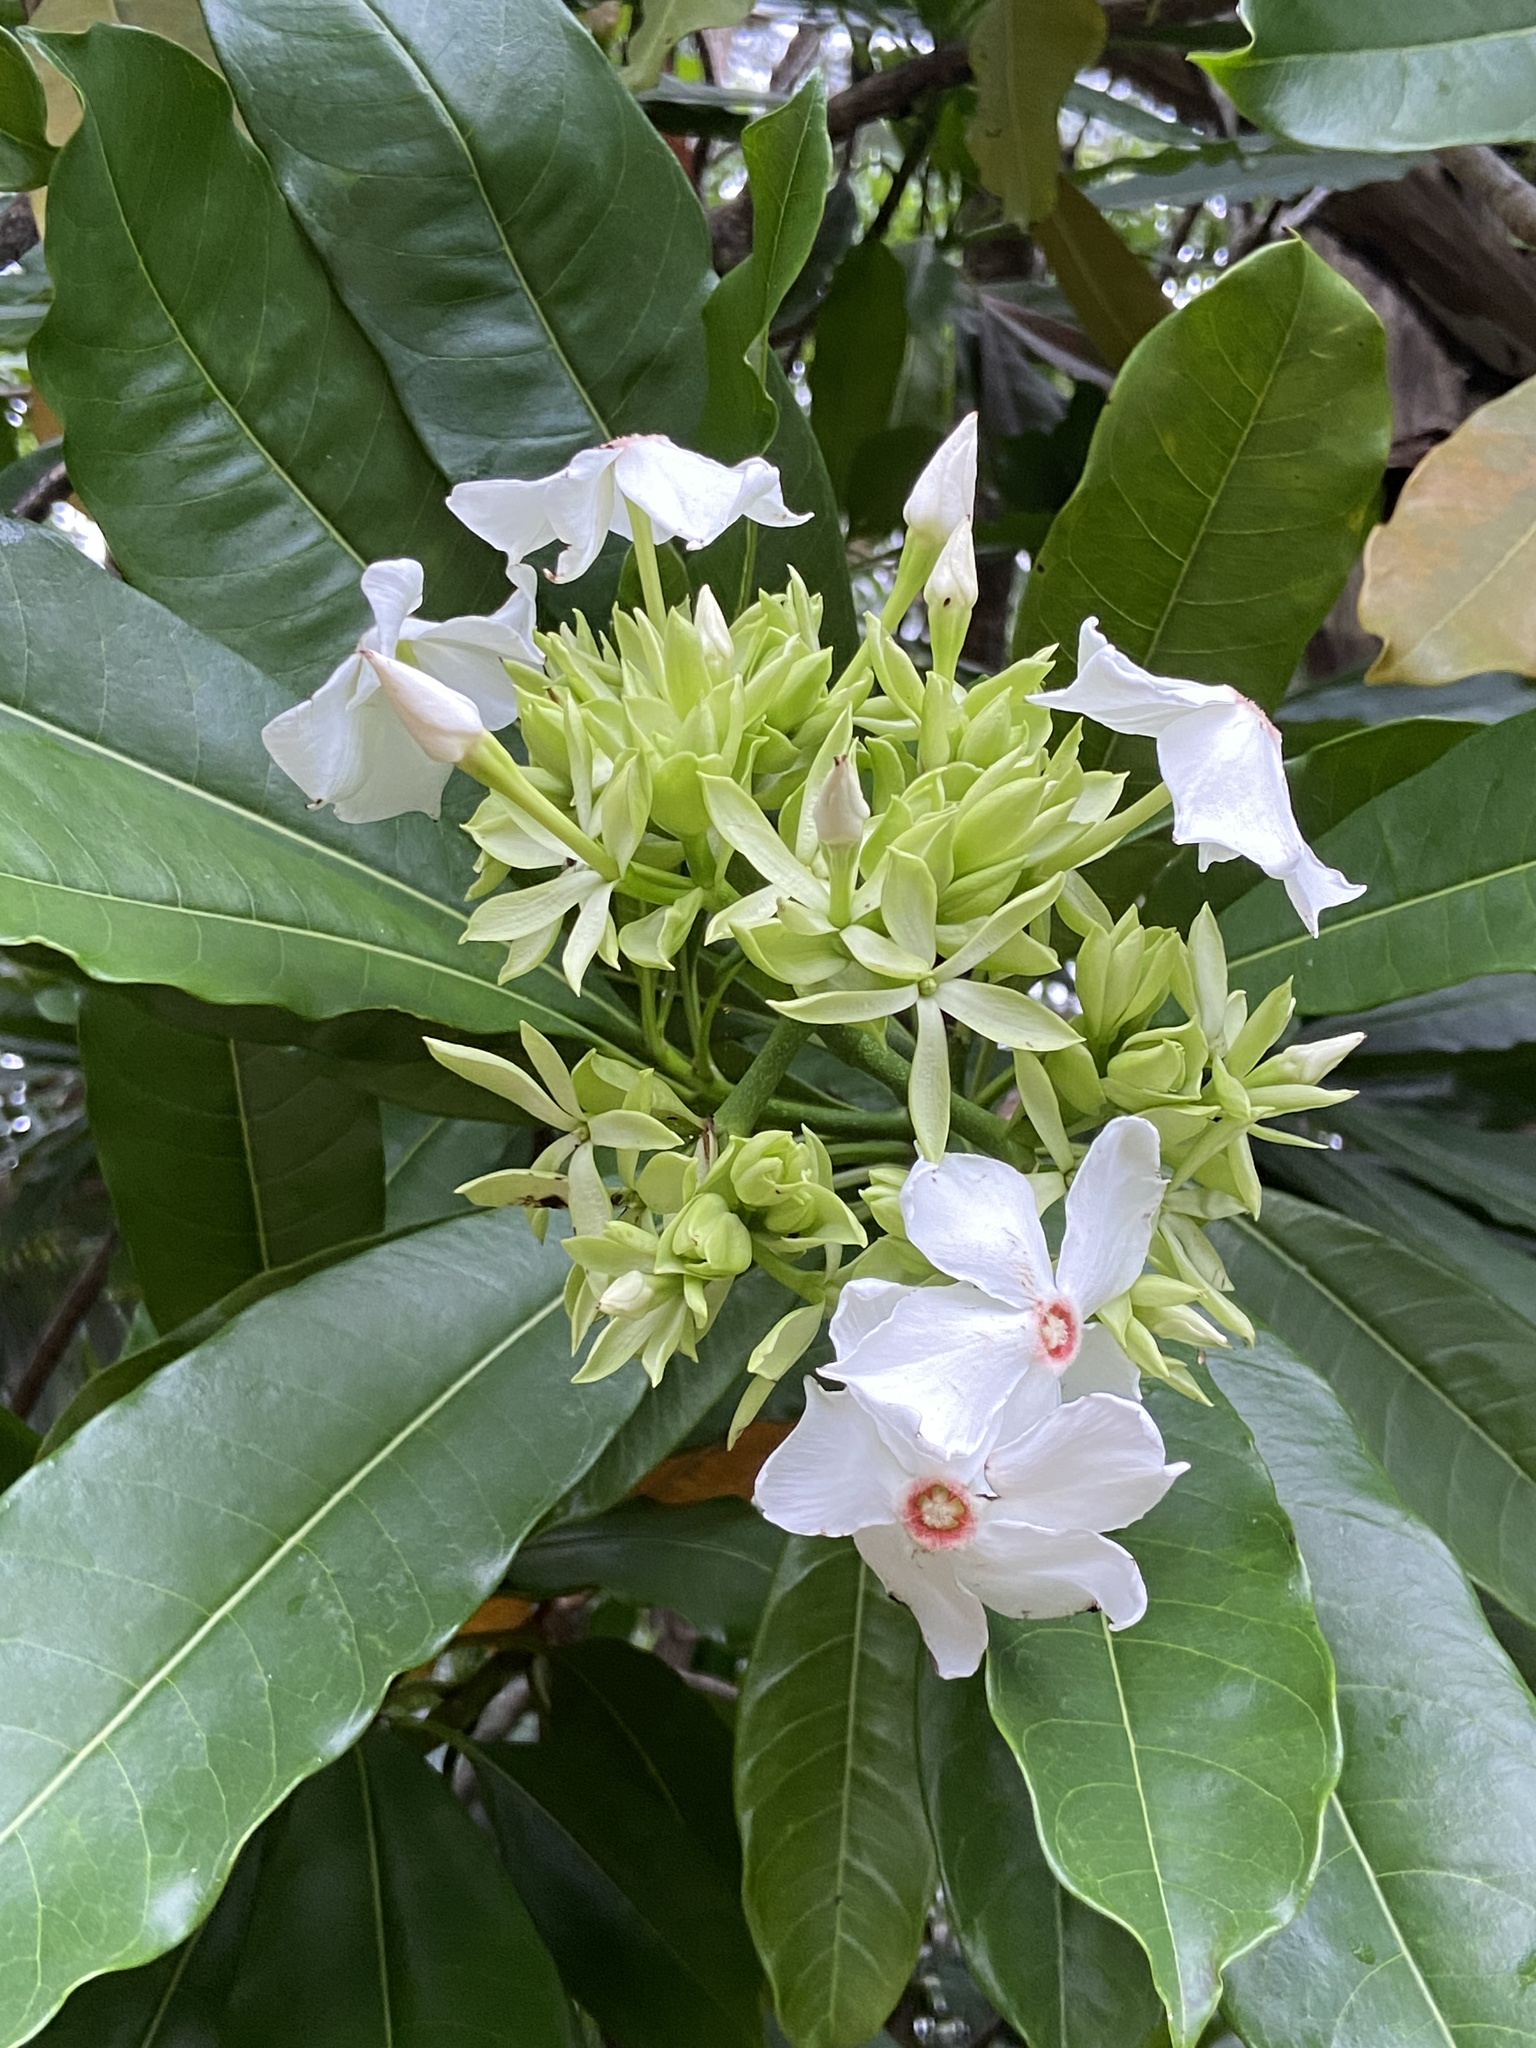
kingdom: Plantae
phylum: Tracheophyta
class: Magnoliopsida
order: Gentianales
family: Apocynaceae
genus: Cerbera
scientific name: Cerbera manghas
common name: Reva
